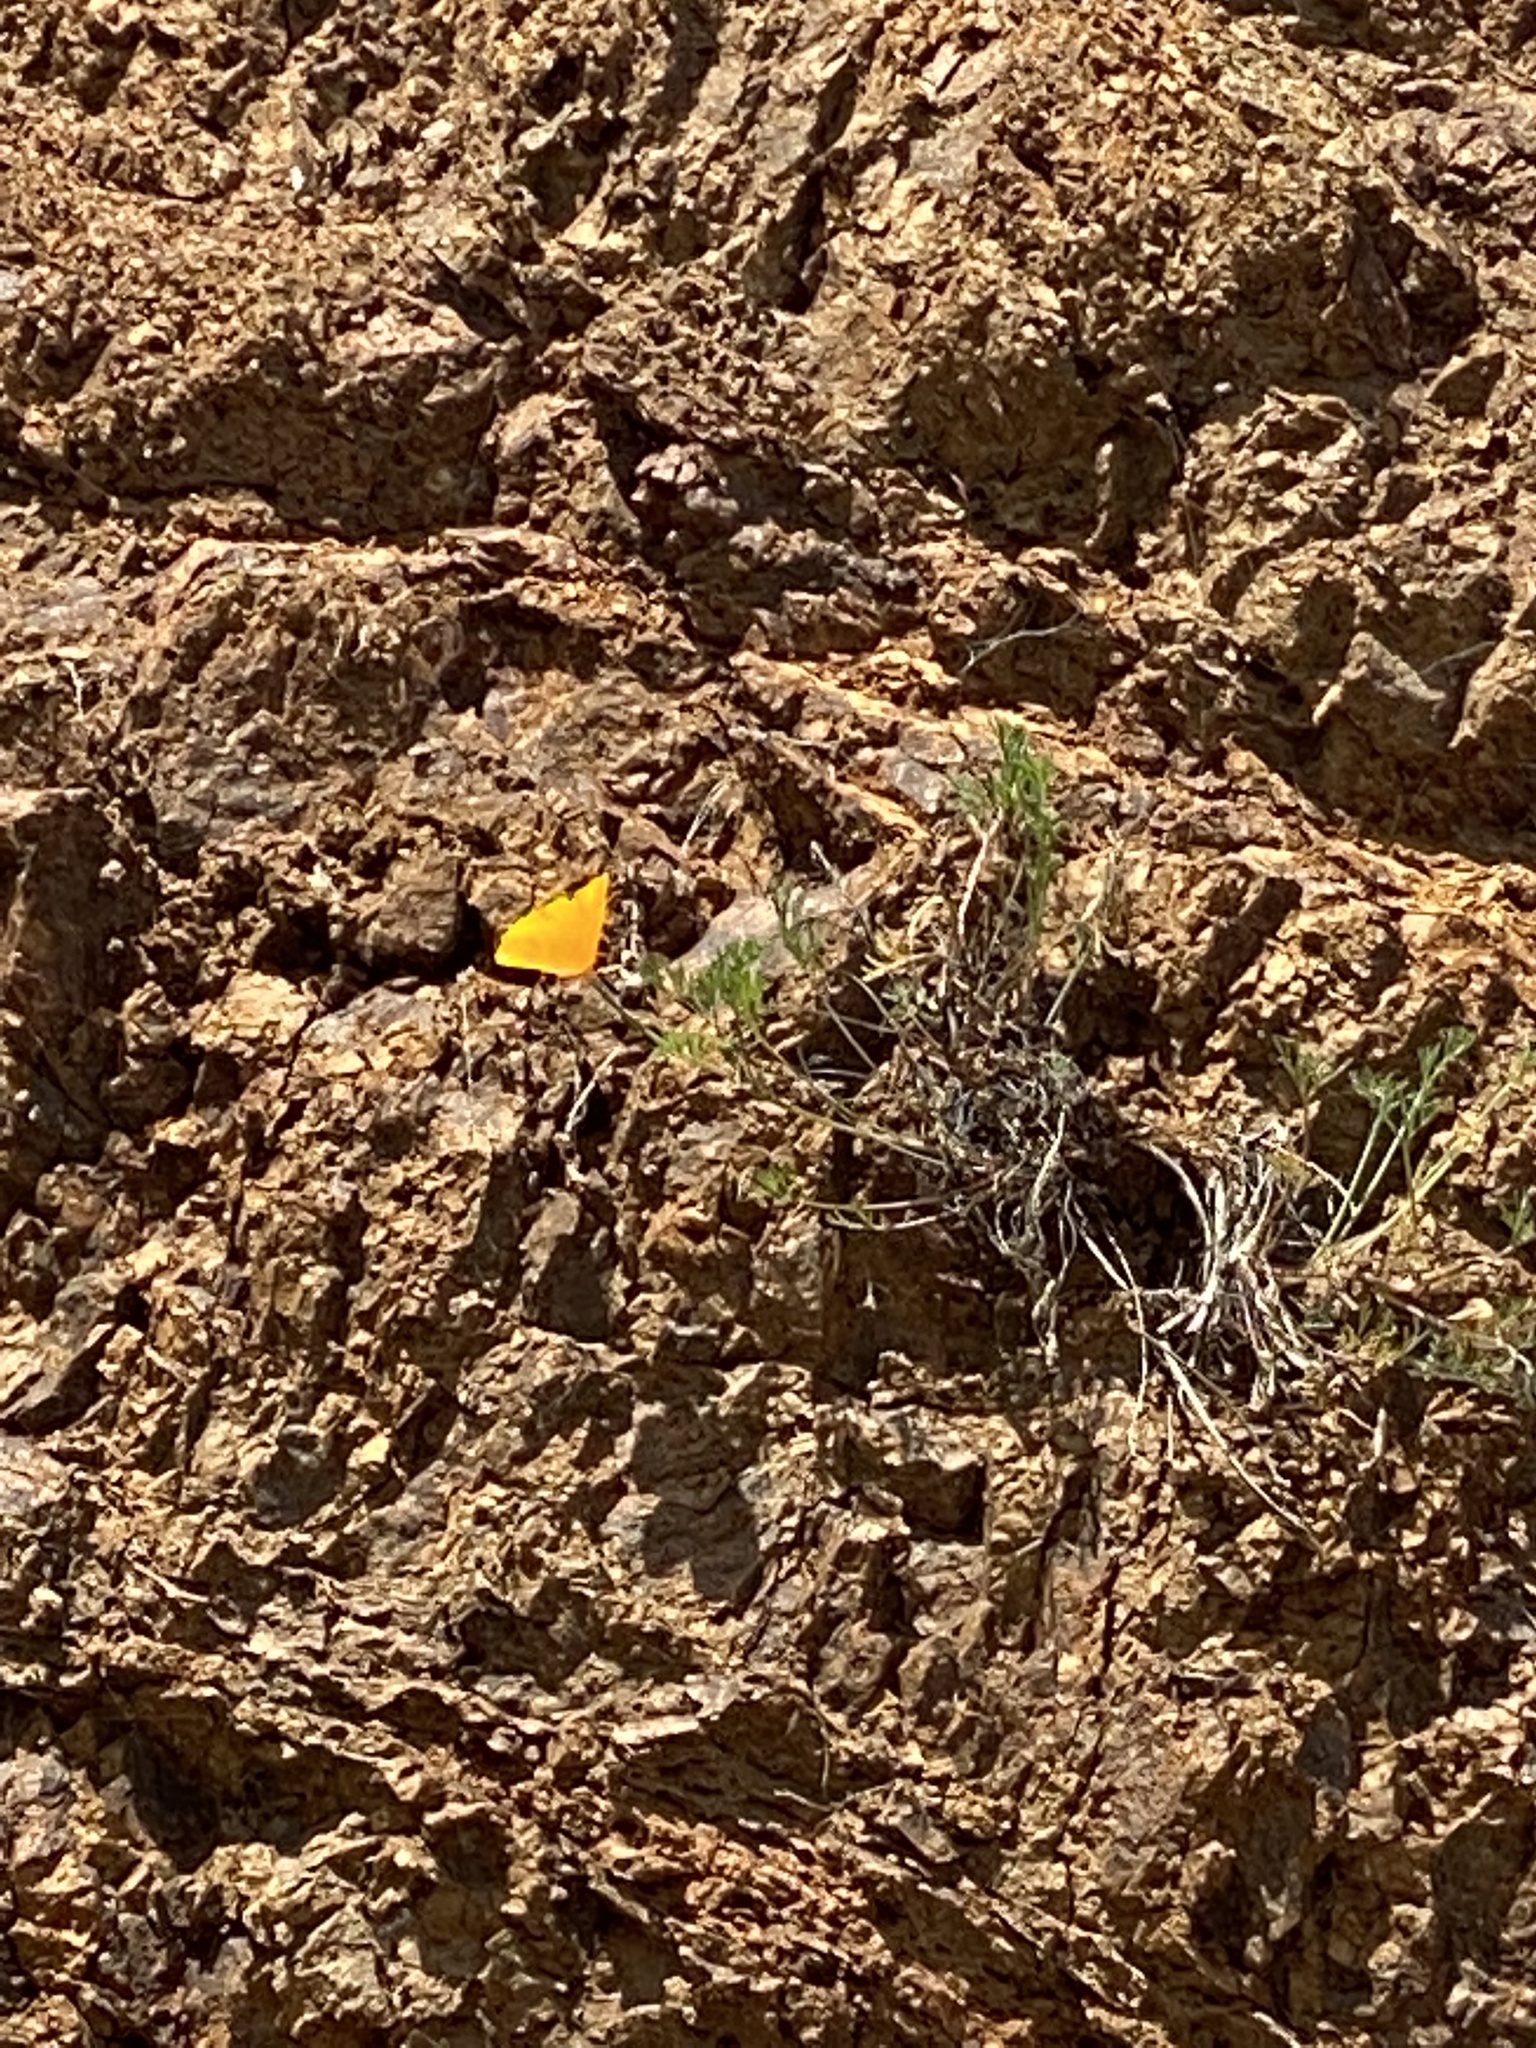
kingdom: Plantae
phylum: Tracheophyta
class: Magnoliopsida
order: Ranunculales
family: Papaveraceae
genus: Eschscholzia
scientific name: Eschscholzia californica
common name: California poppy
